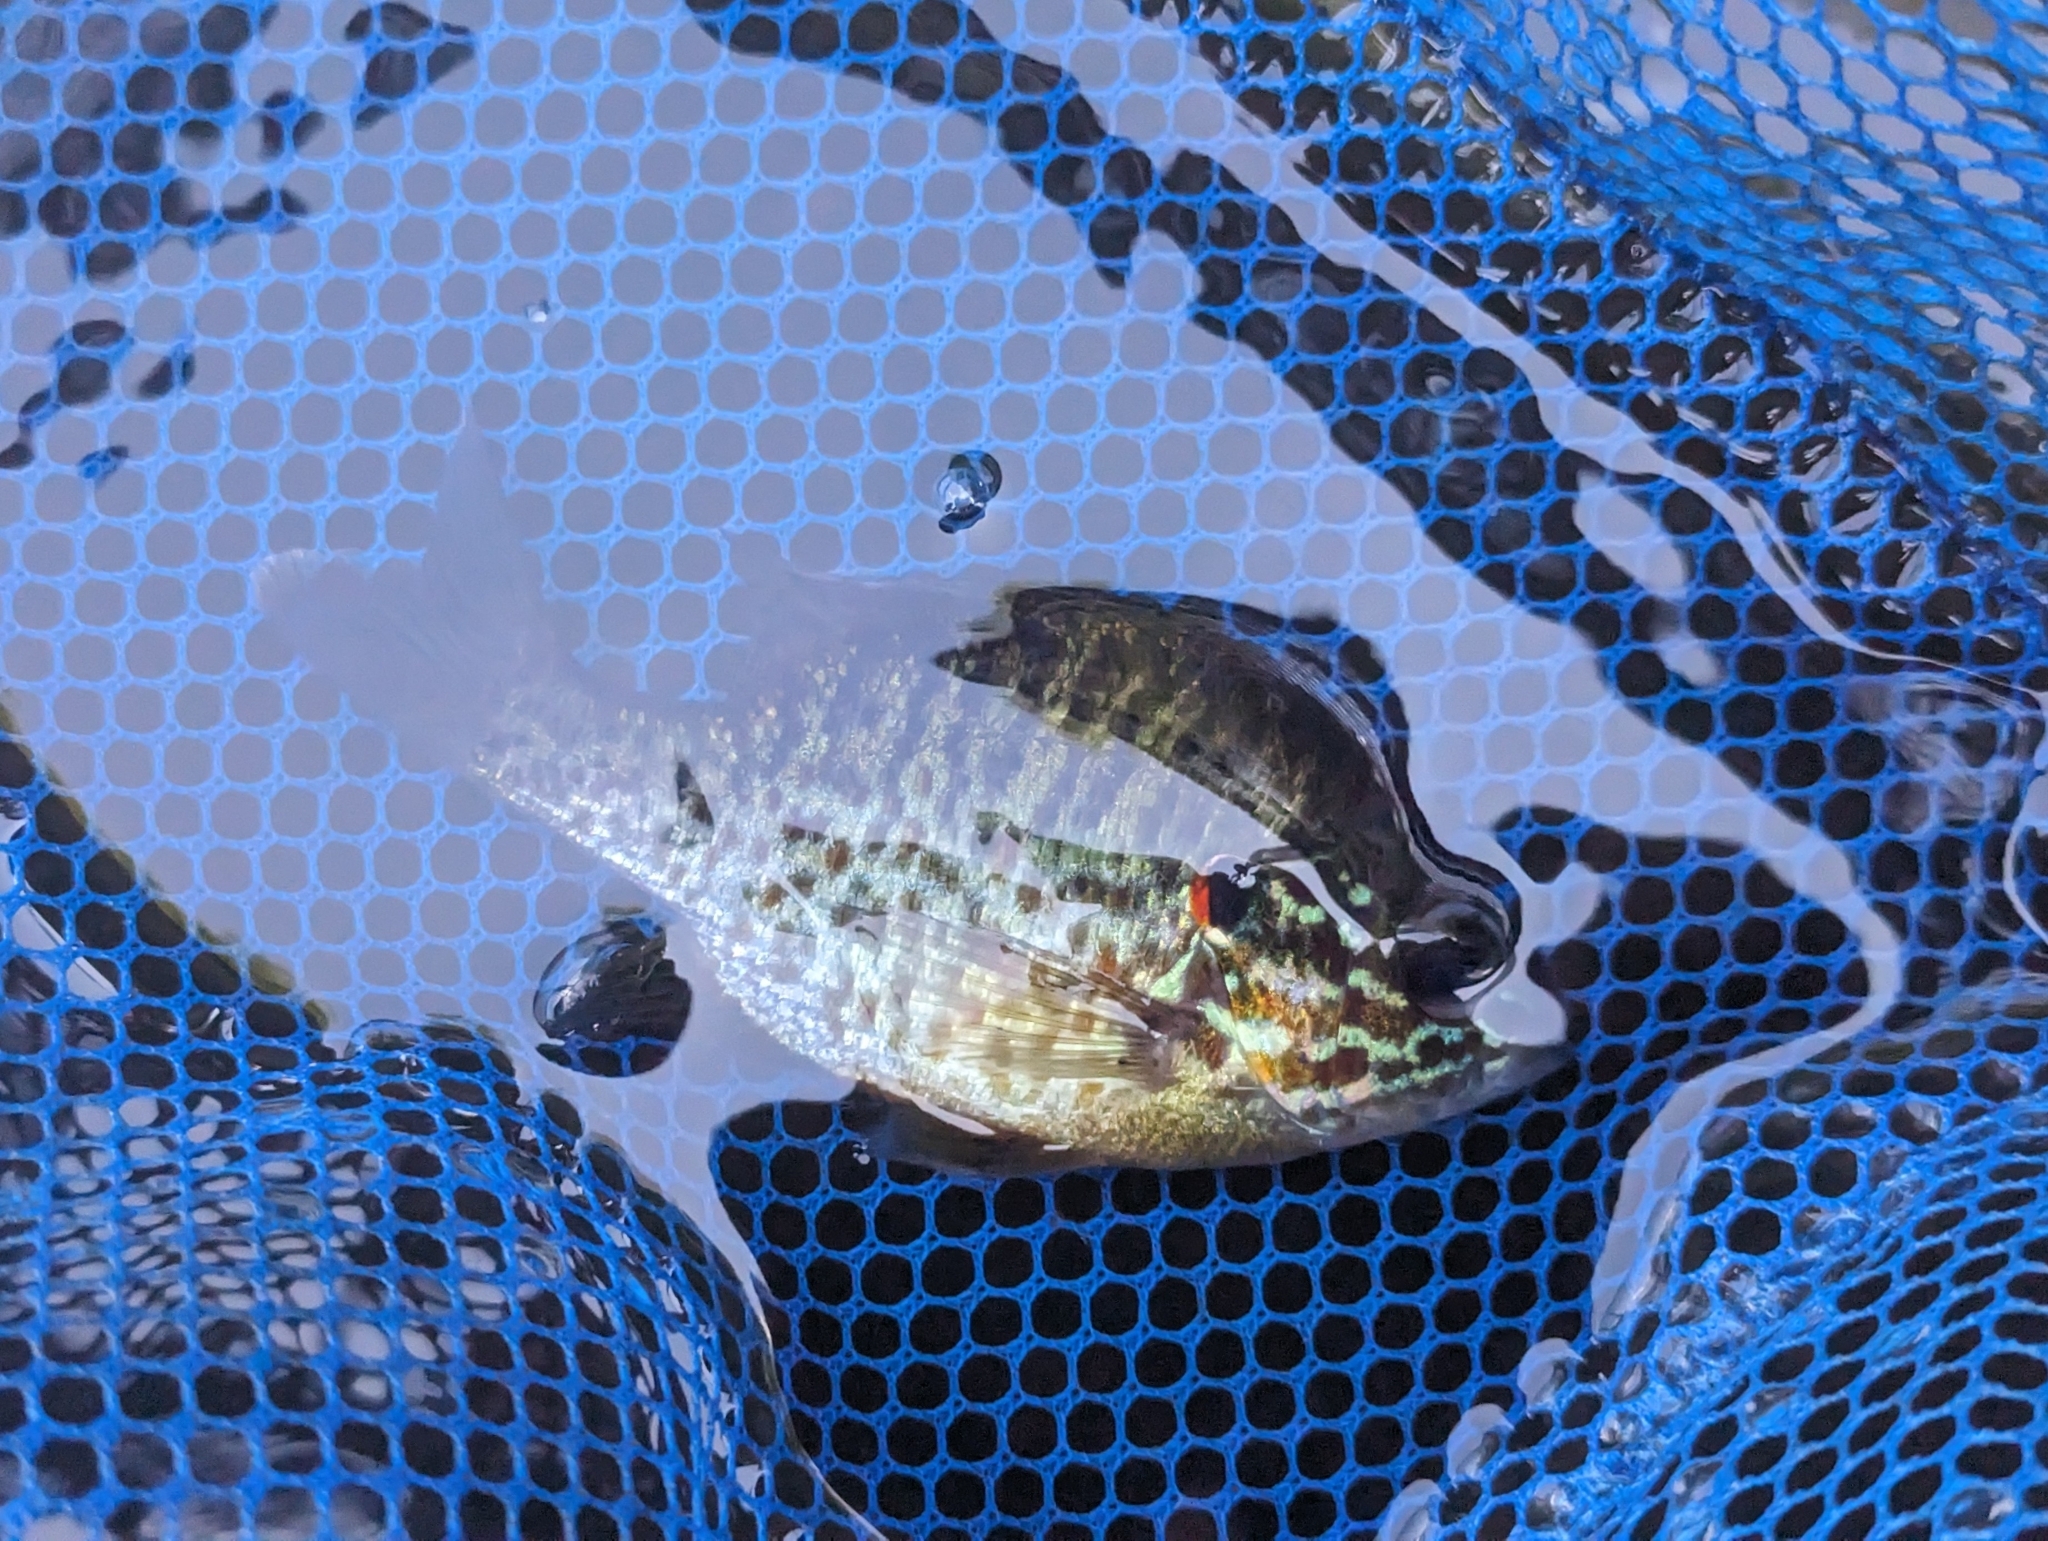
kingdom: Animalia
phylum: Chordata
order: Perciformes
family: Centrarchidae
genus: Lepomis
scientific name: Lepomis gibbosus
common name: Pumpkinseed
